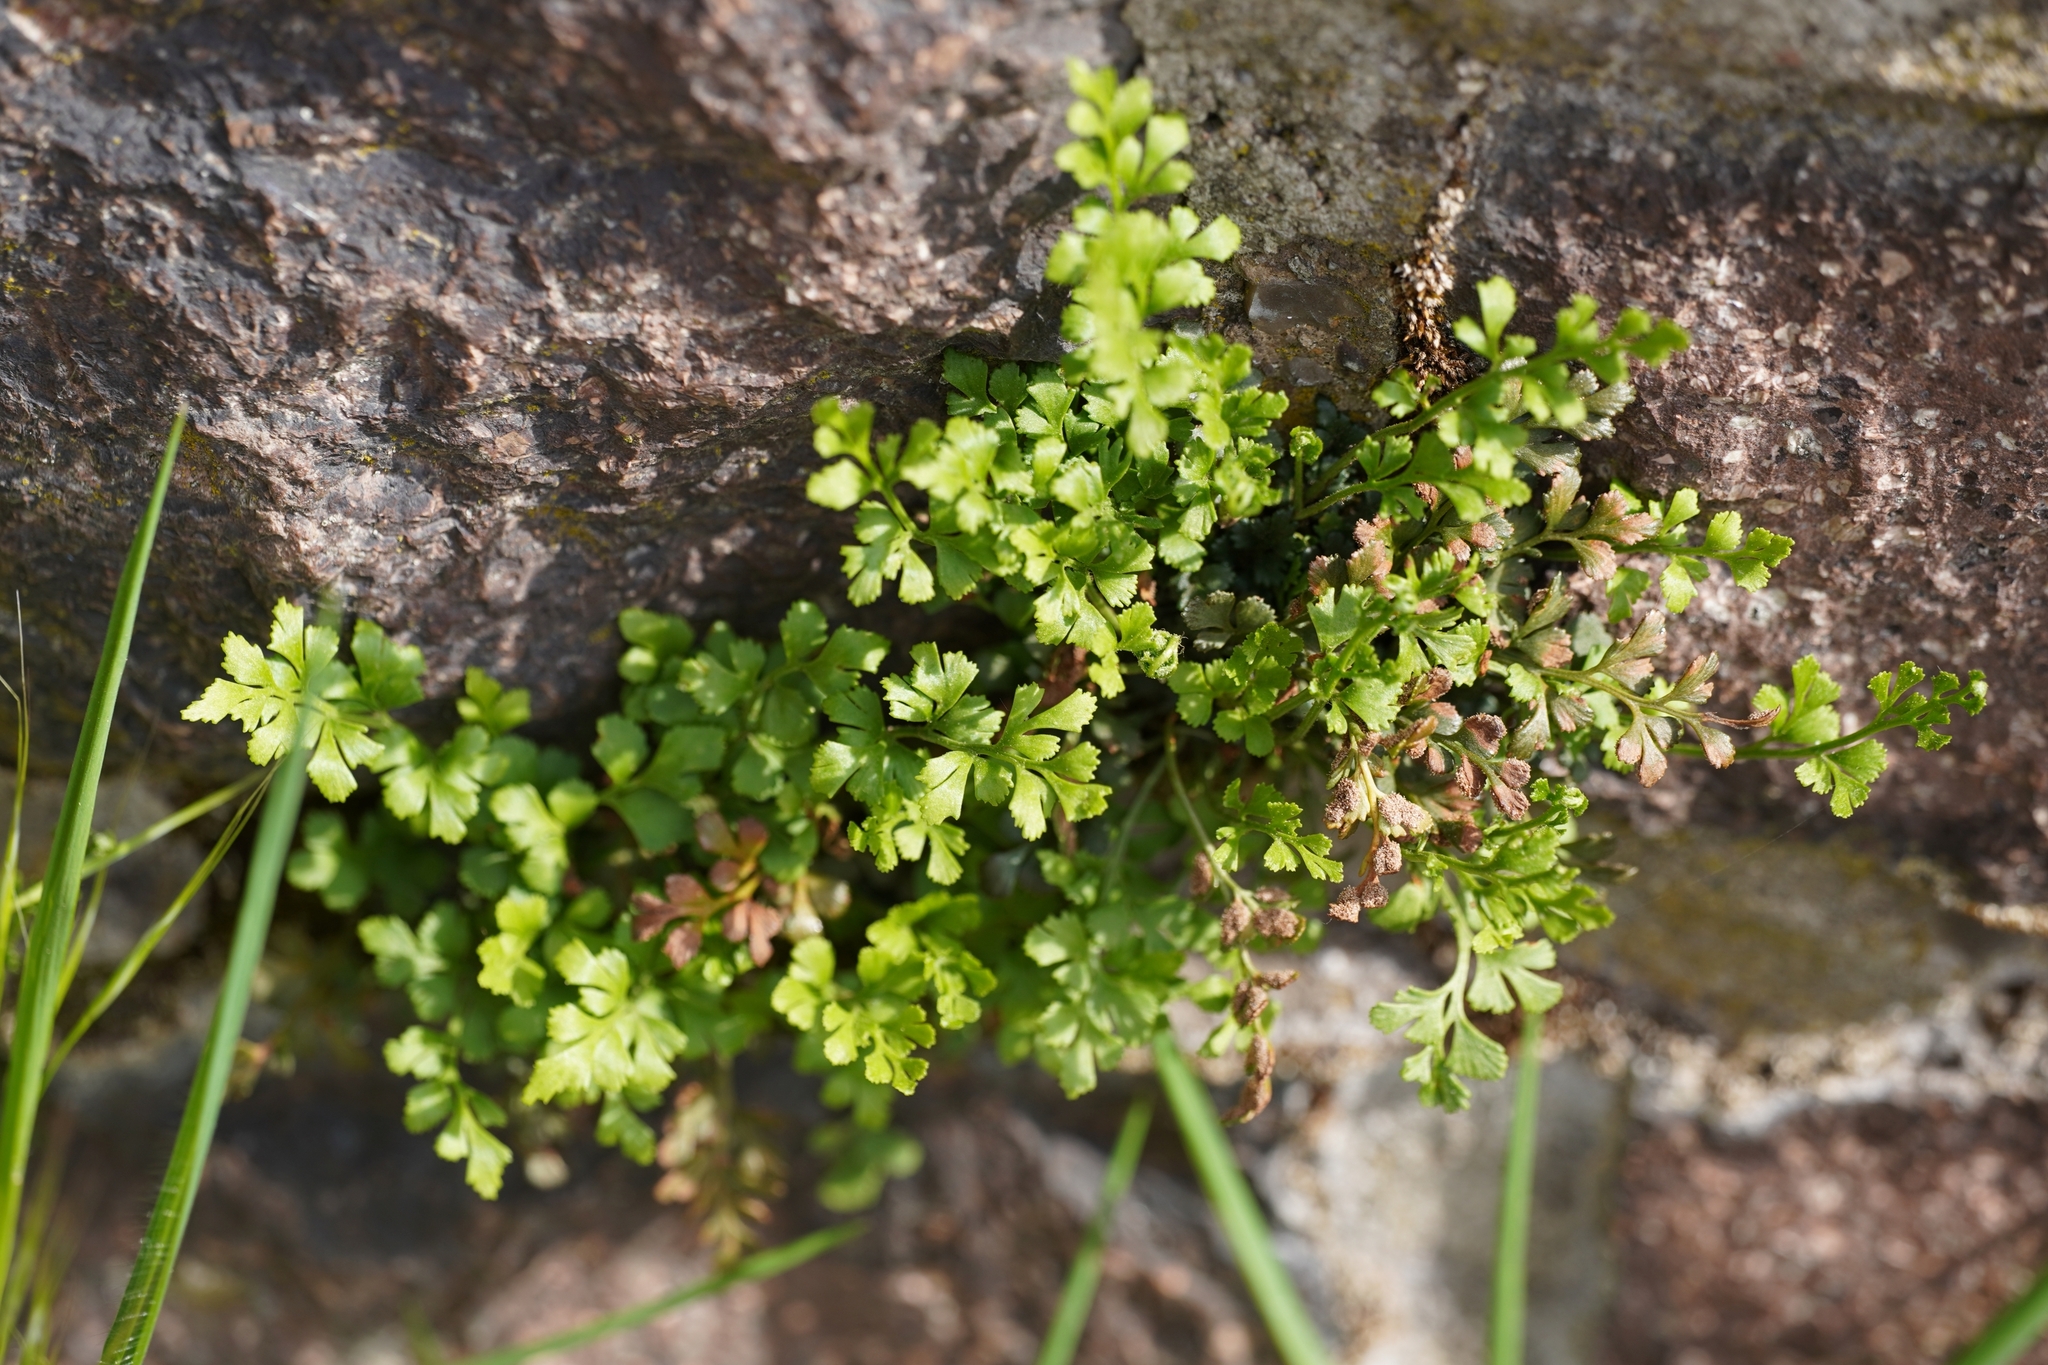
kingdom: Plantae
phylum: Tracheophyta
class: Polypodiopsida
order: Polypodiales
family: Aspleniaceae
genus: Asplenium
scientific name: Asplenium ruta-muraria
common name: Wall-rue
